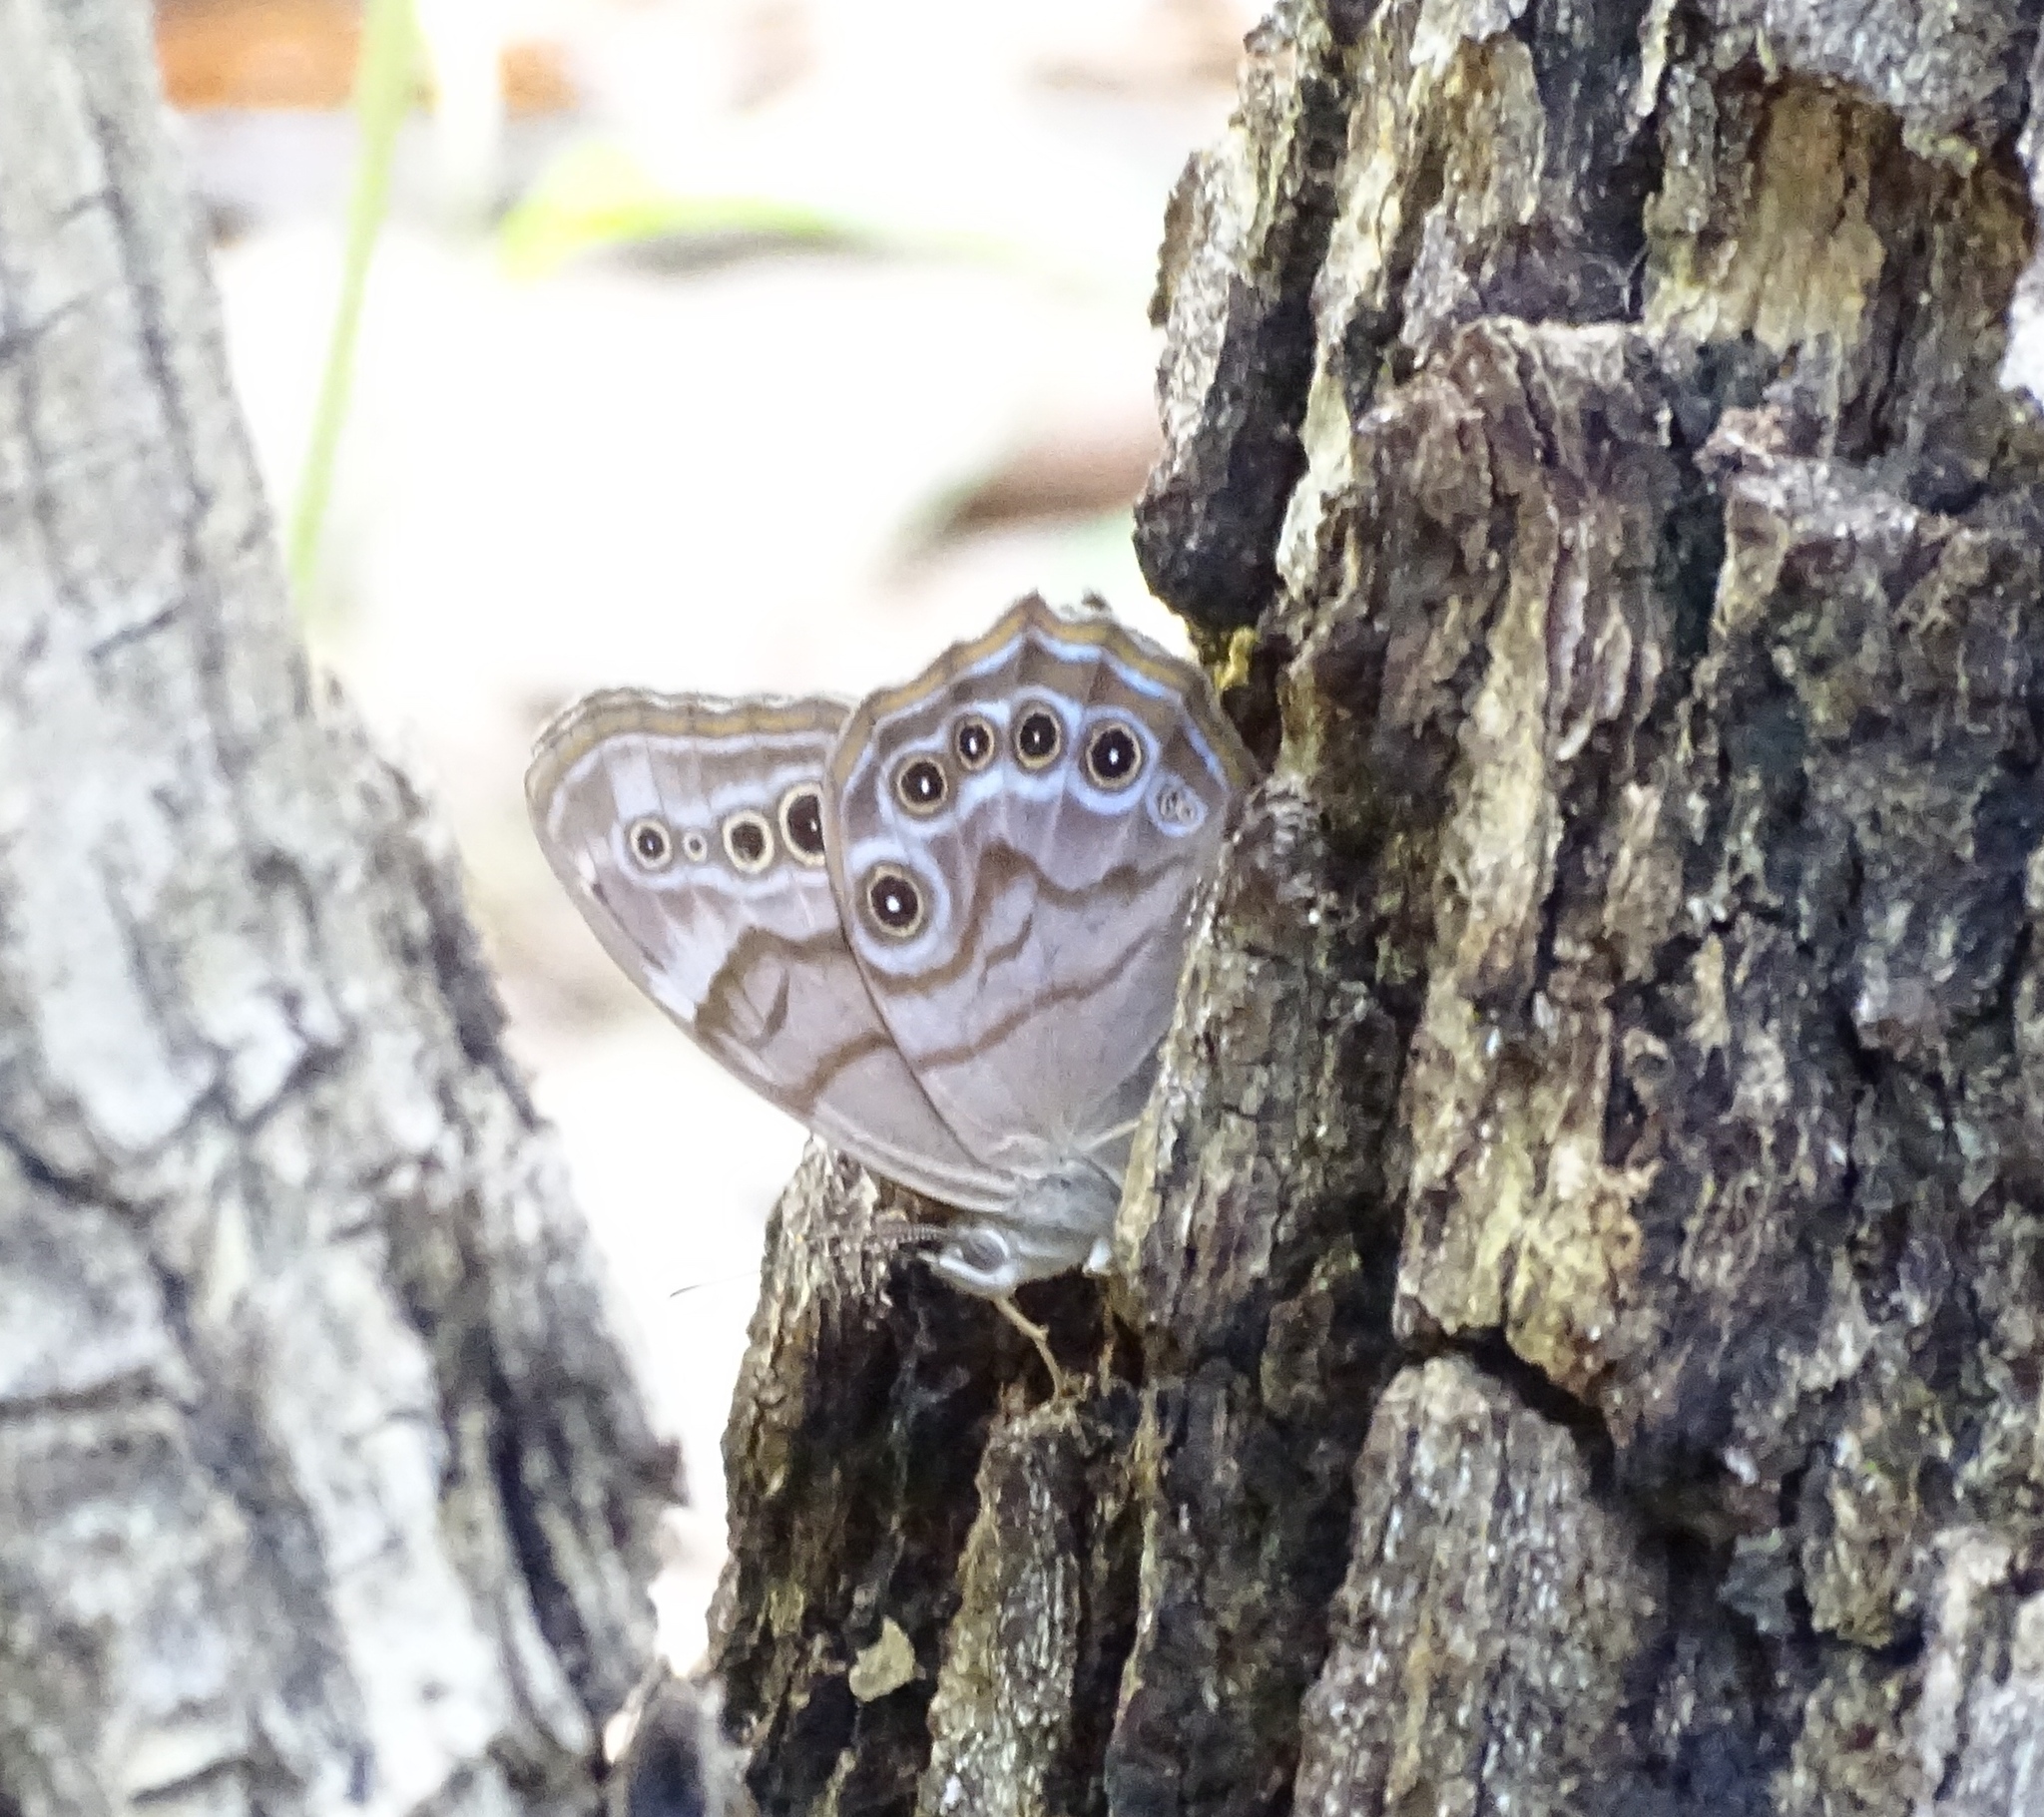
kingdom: Animalia
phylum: Arthropoda
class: Insecta
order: Lepidoptera
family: Nymphalidae
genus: Lethe
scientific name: Lethe anthedon
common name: Northern pearly-eye
